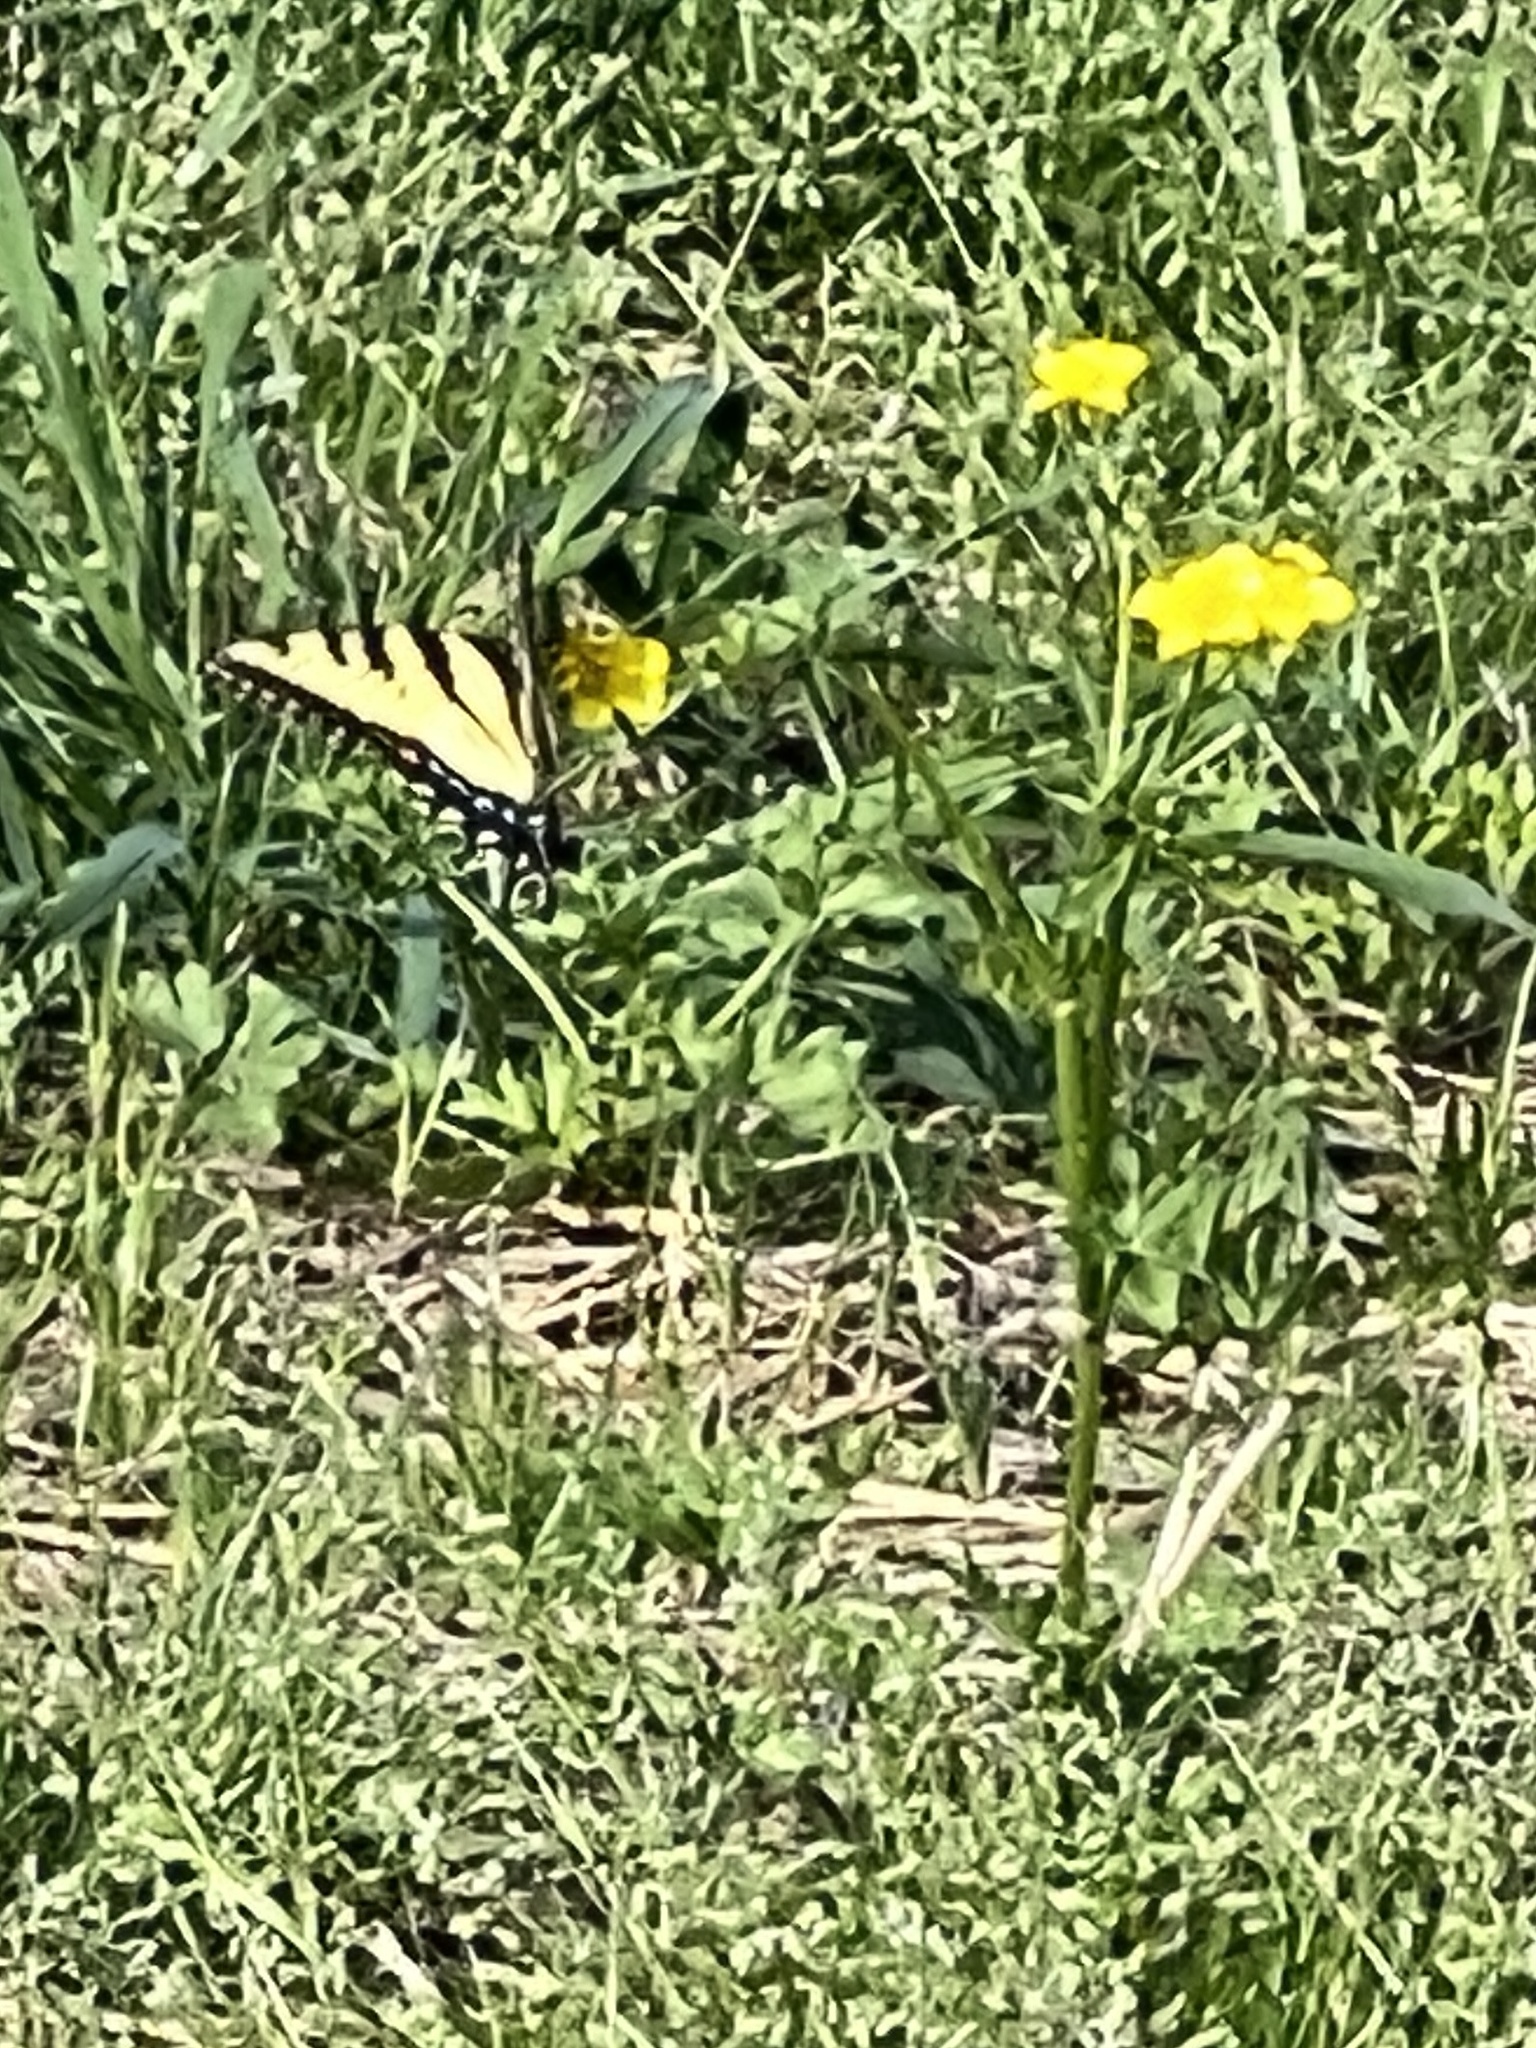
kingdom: Animalia
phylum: Arthropoda
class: Insecta
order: Lepidoptera
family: Papilionidae
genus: Papilio
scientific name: Papilio glaucus
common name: Tiger swallowtail
